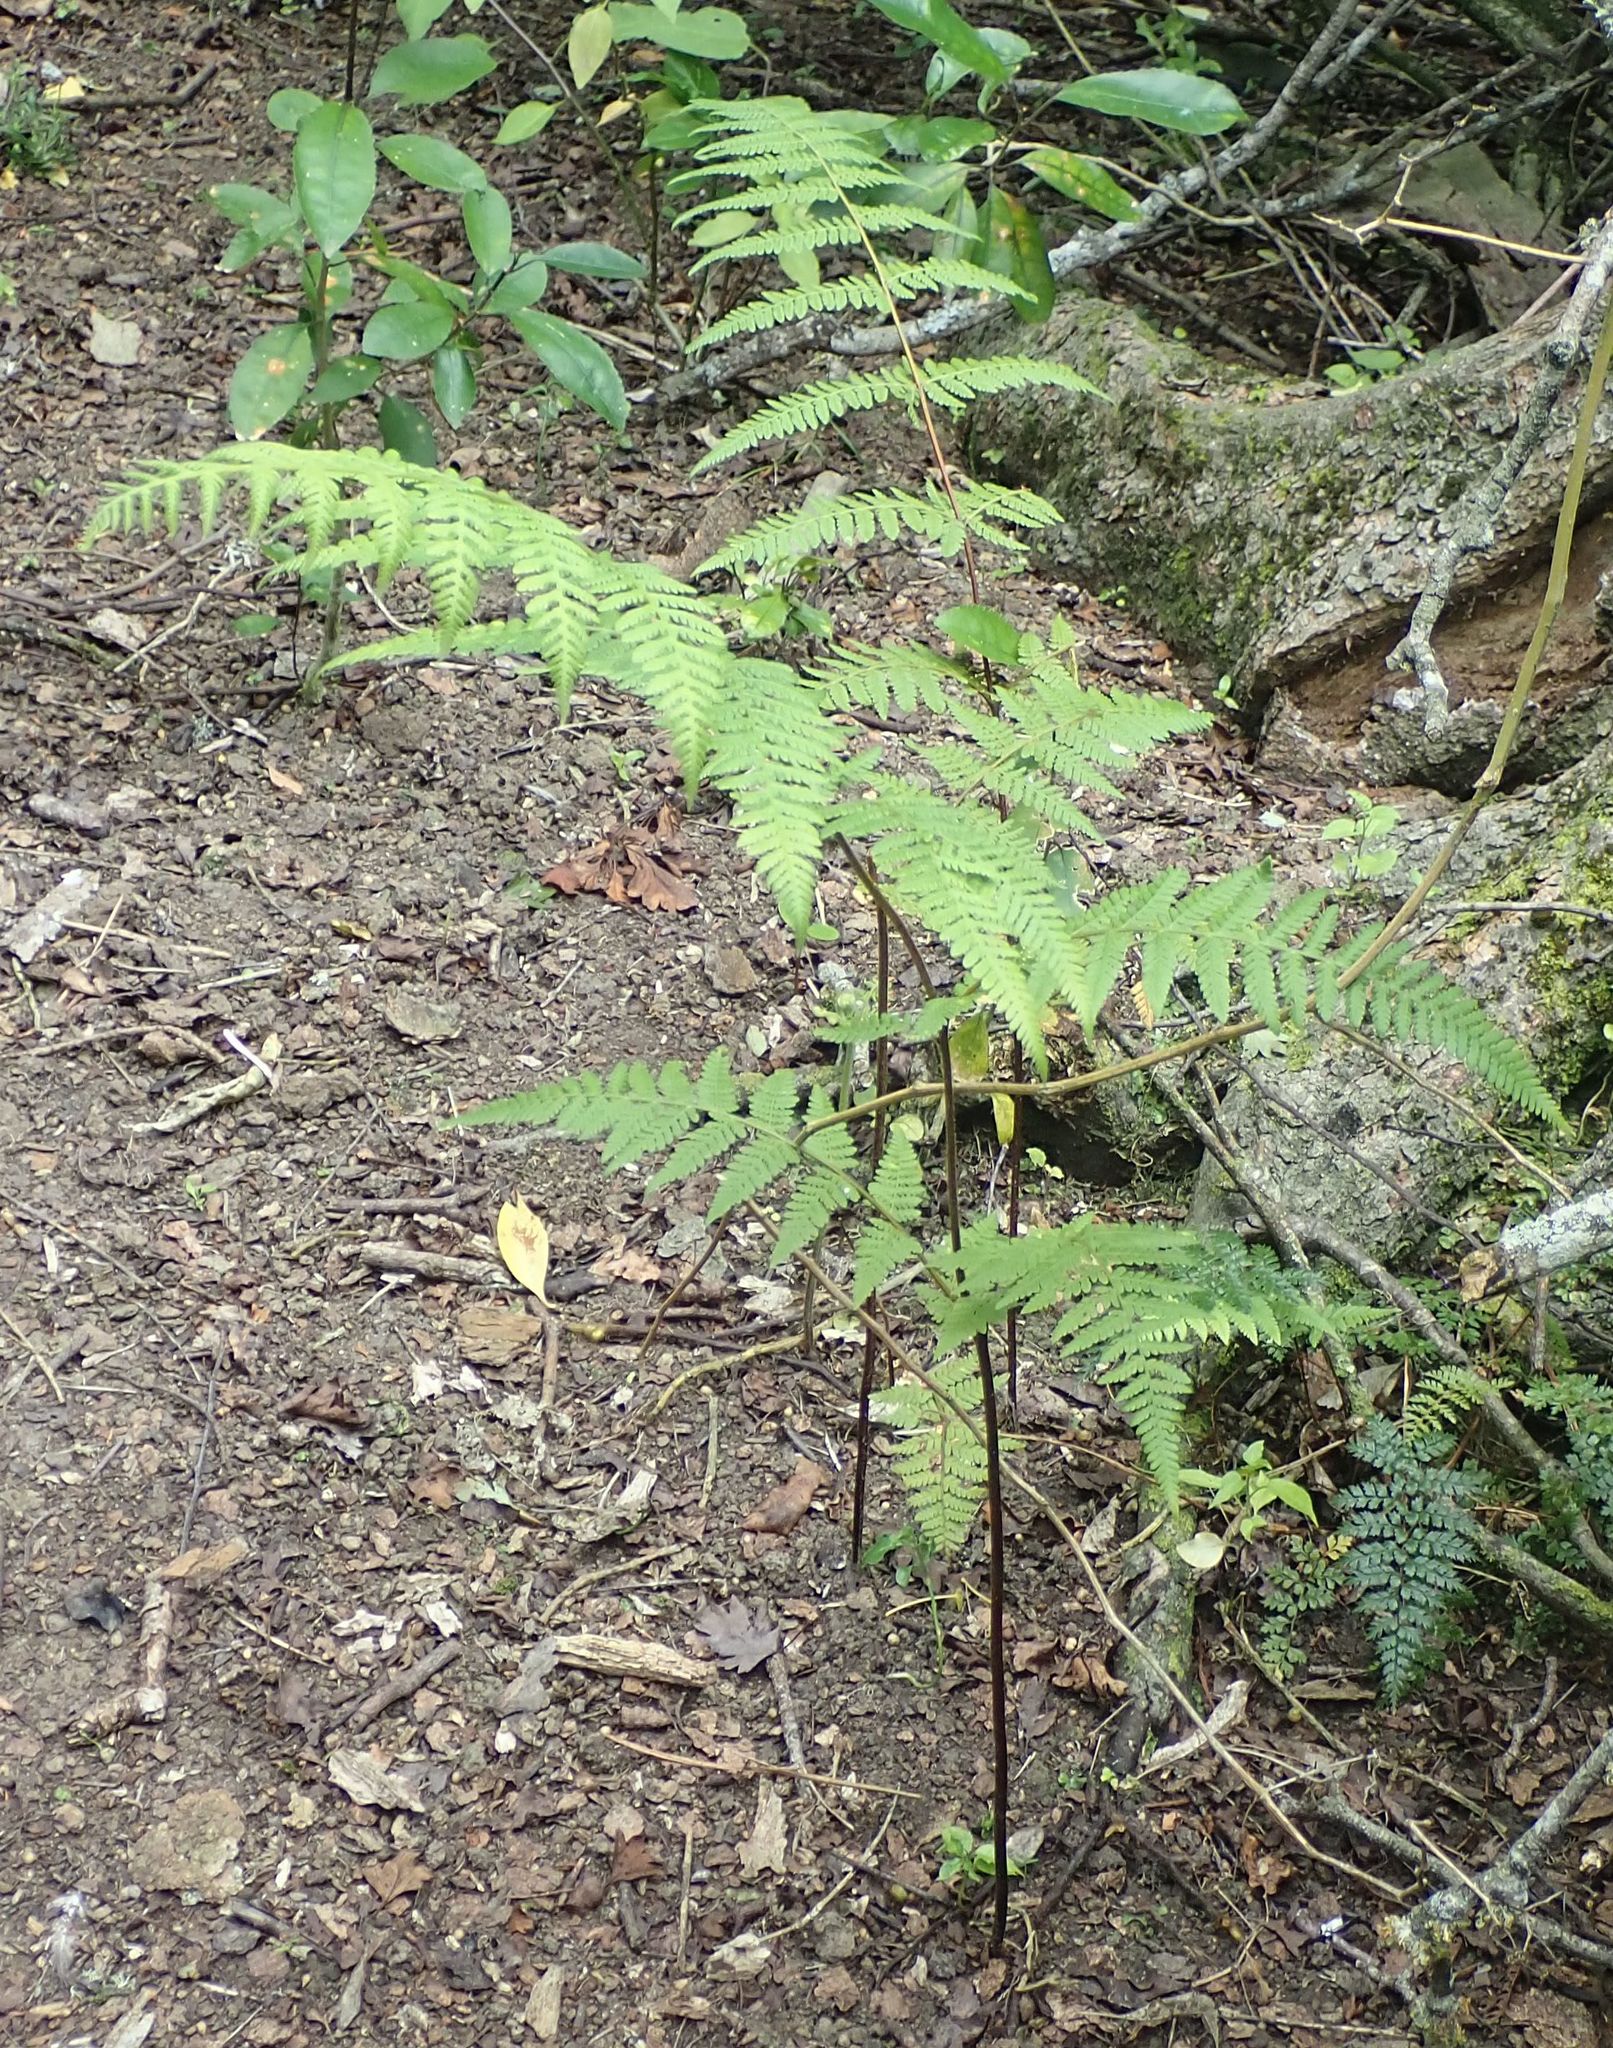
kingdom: Plantae
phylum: Tracheophyta
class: Polypodiopsida
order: Polypodiales
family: Dennstaedtiaceae
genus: Hypolepis
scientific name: Hypolepis ambigua
